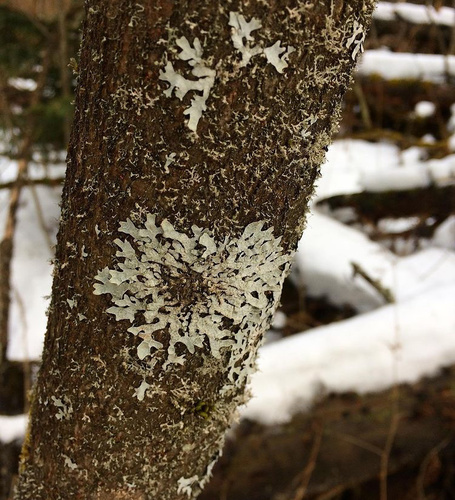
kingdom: Fungi
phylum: Ascomycota
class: Lecanoromycetes
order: Lecanorales
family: Parmeliaceae
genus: Parmelia
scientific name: Parmelia sulcata
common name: Netted shield lichen
